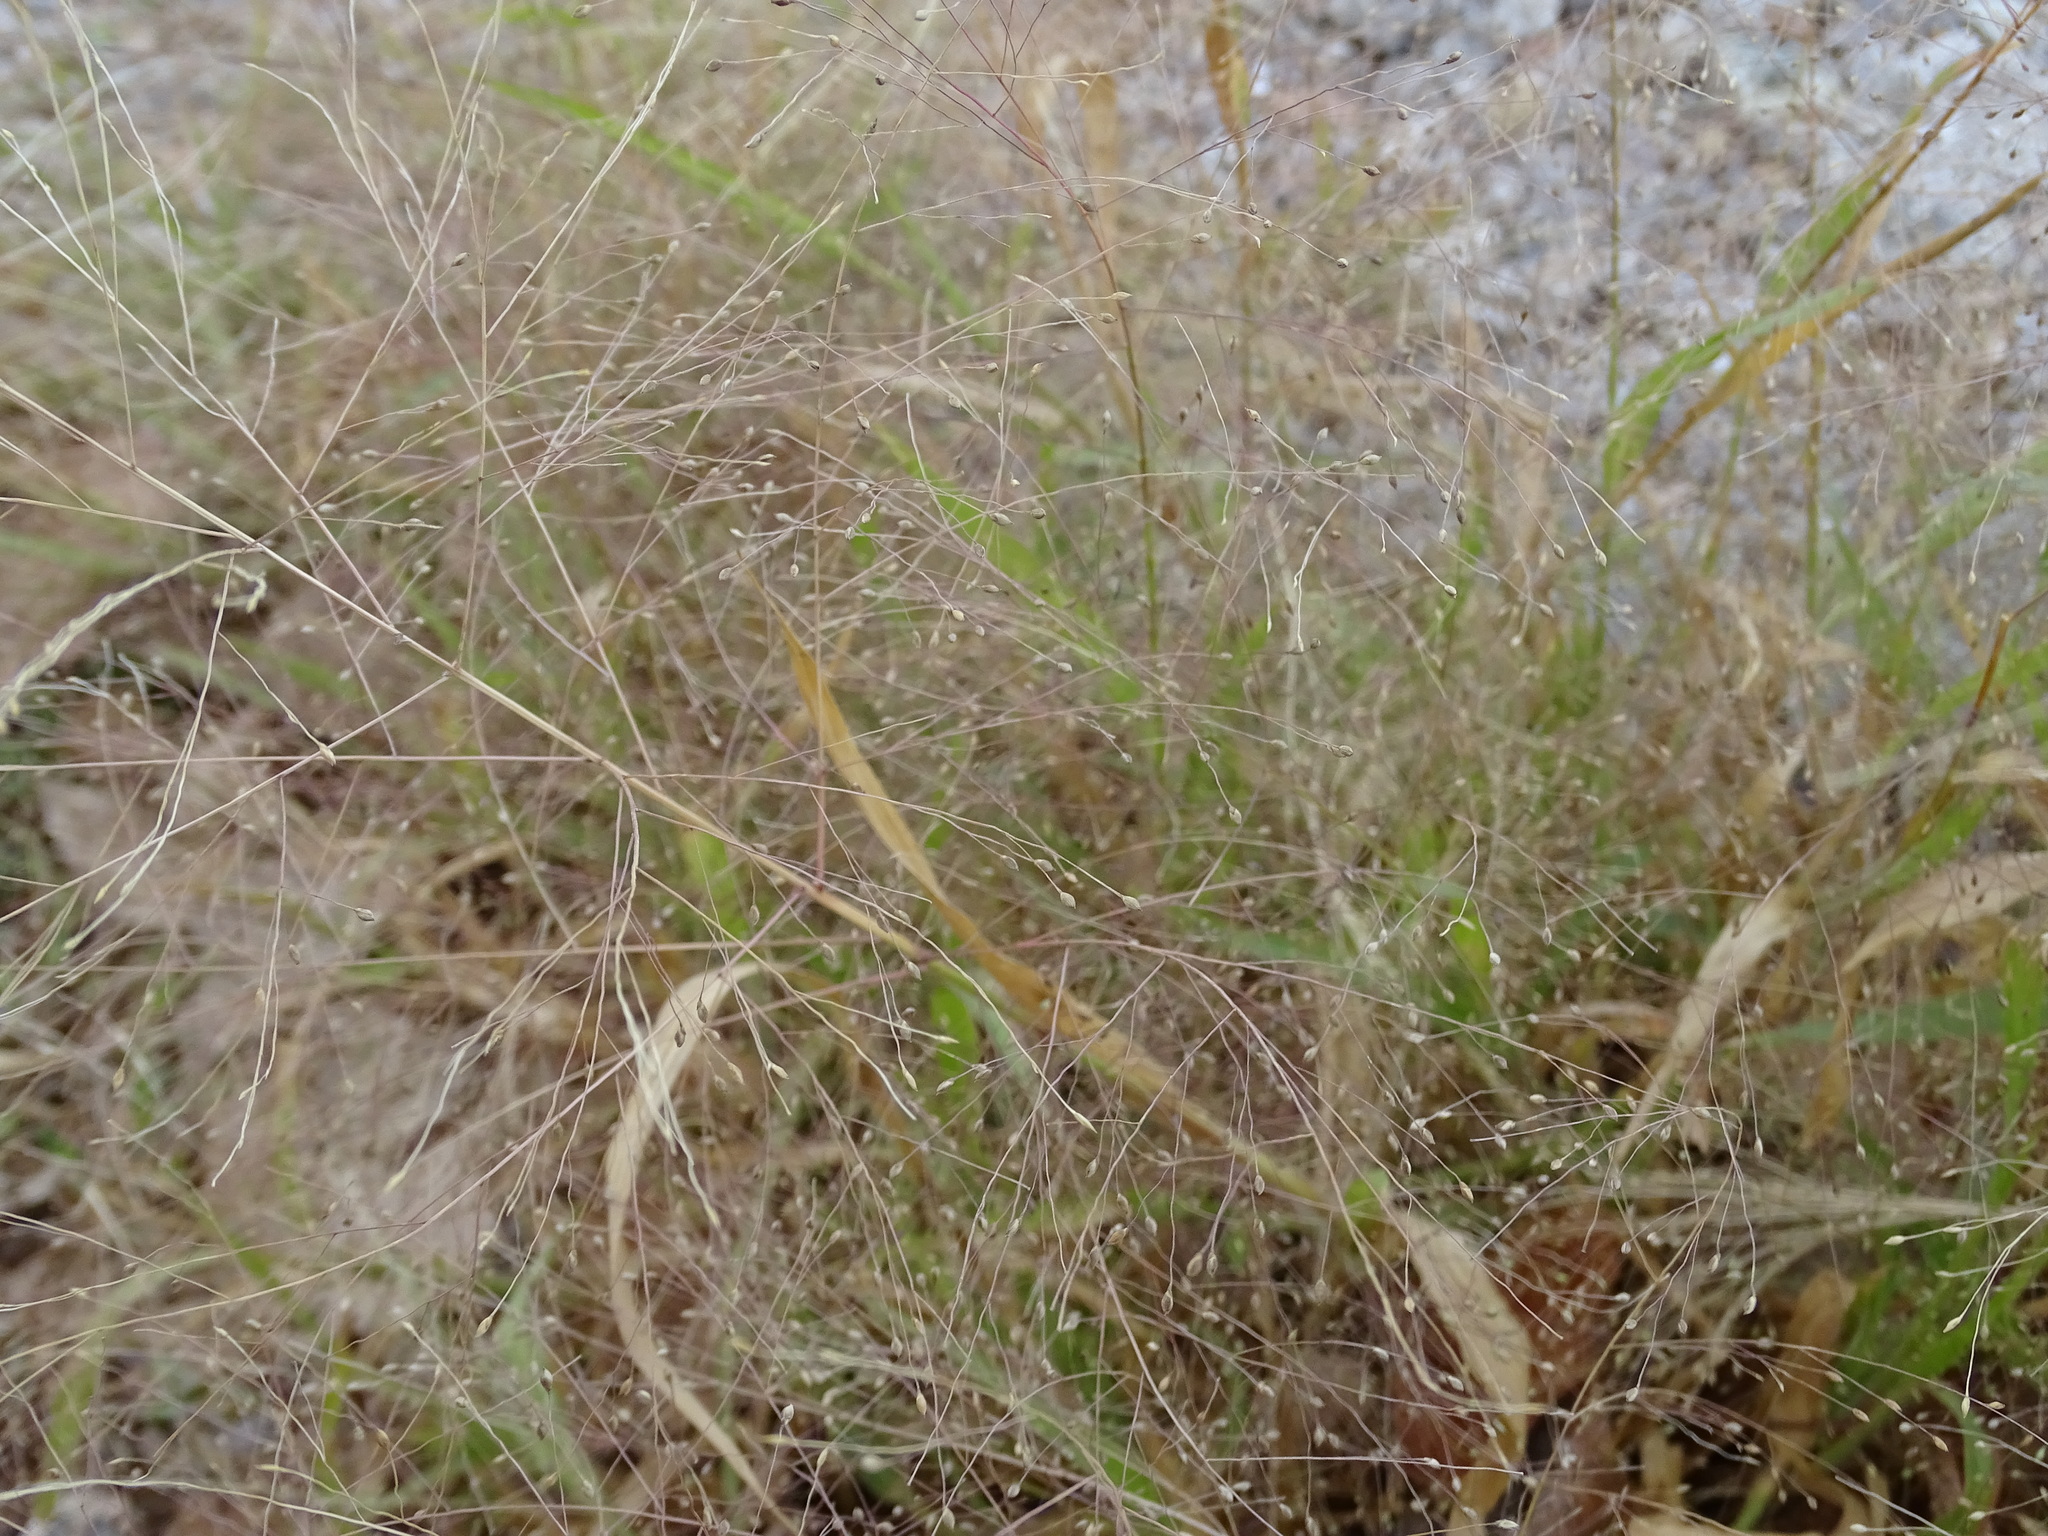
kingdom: Plantae
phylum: Tracheophyta
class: Liliopsida
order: Poales
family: Poaceae
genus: Panicum
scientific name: Panicum capillare
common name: Witch-grass
